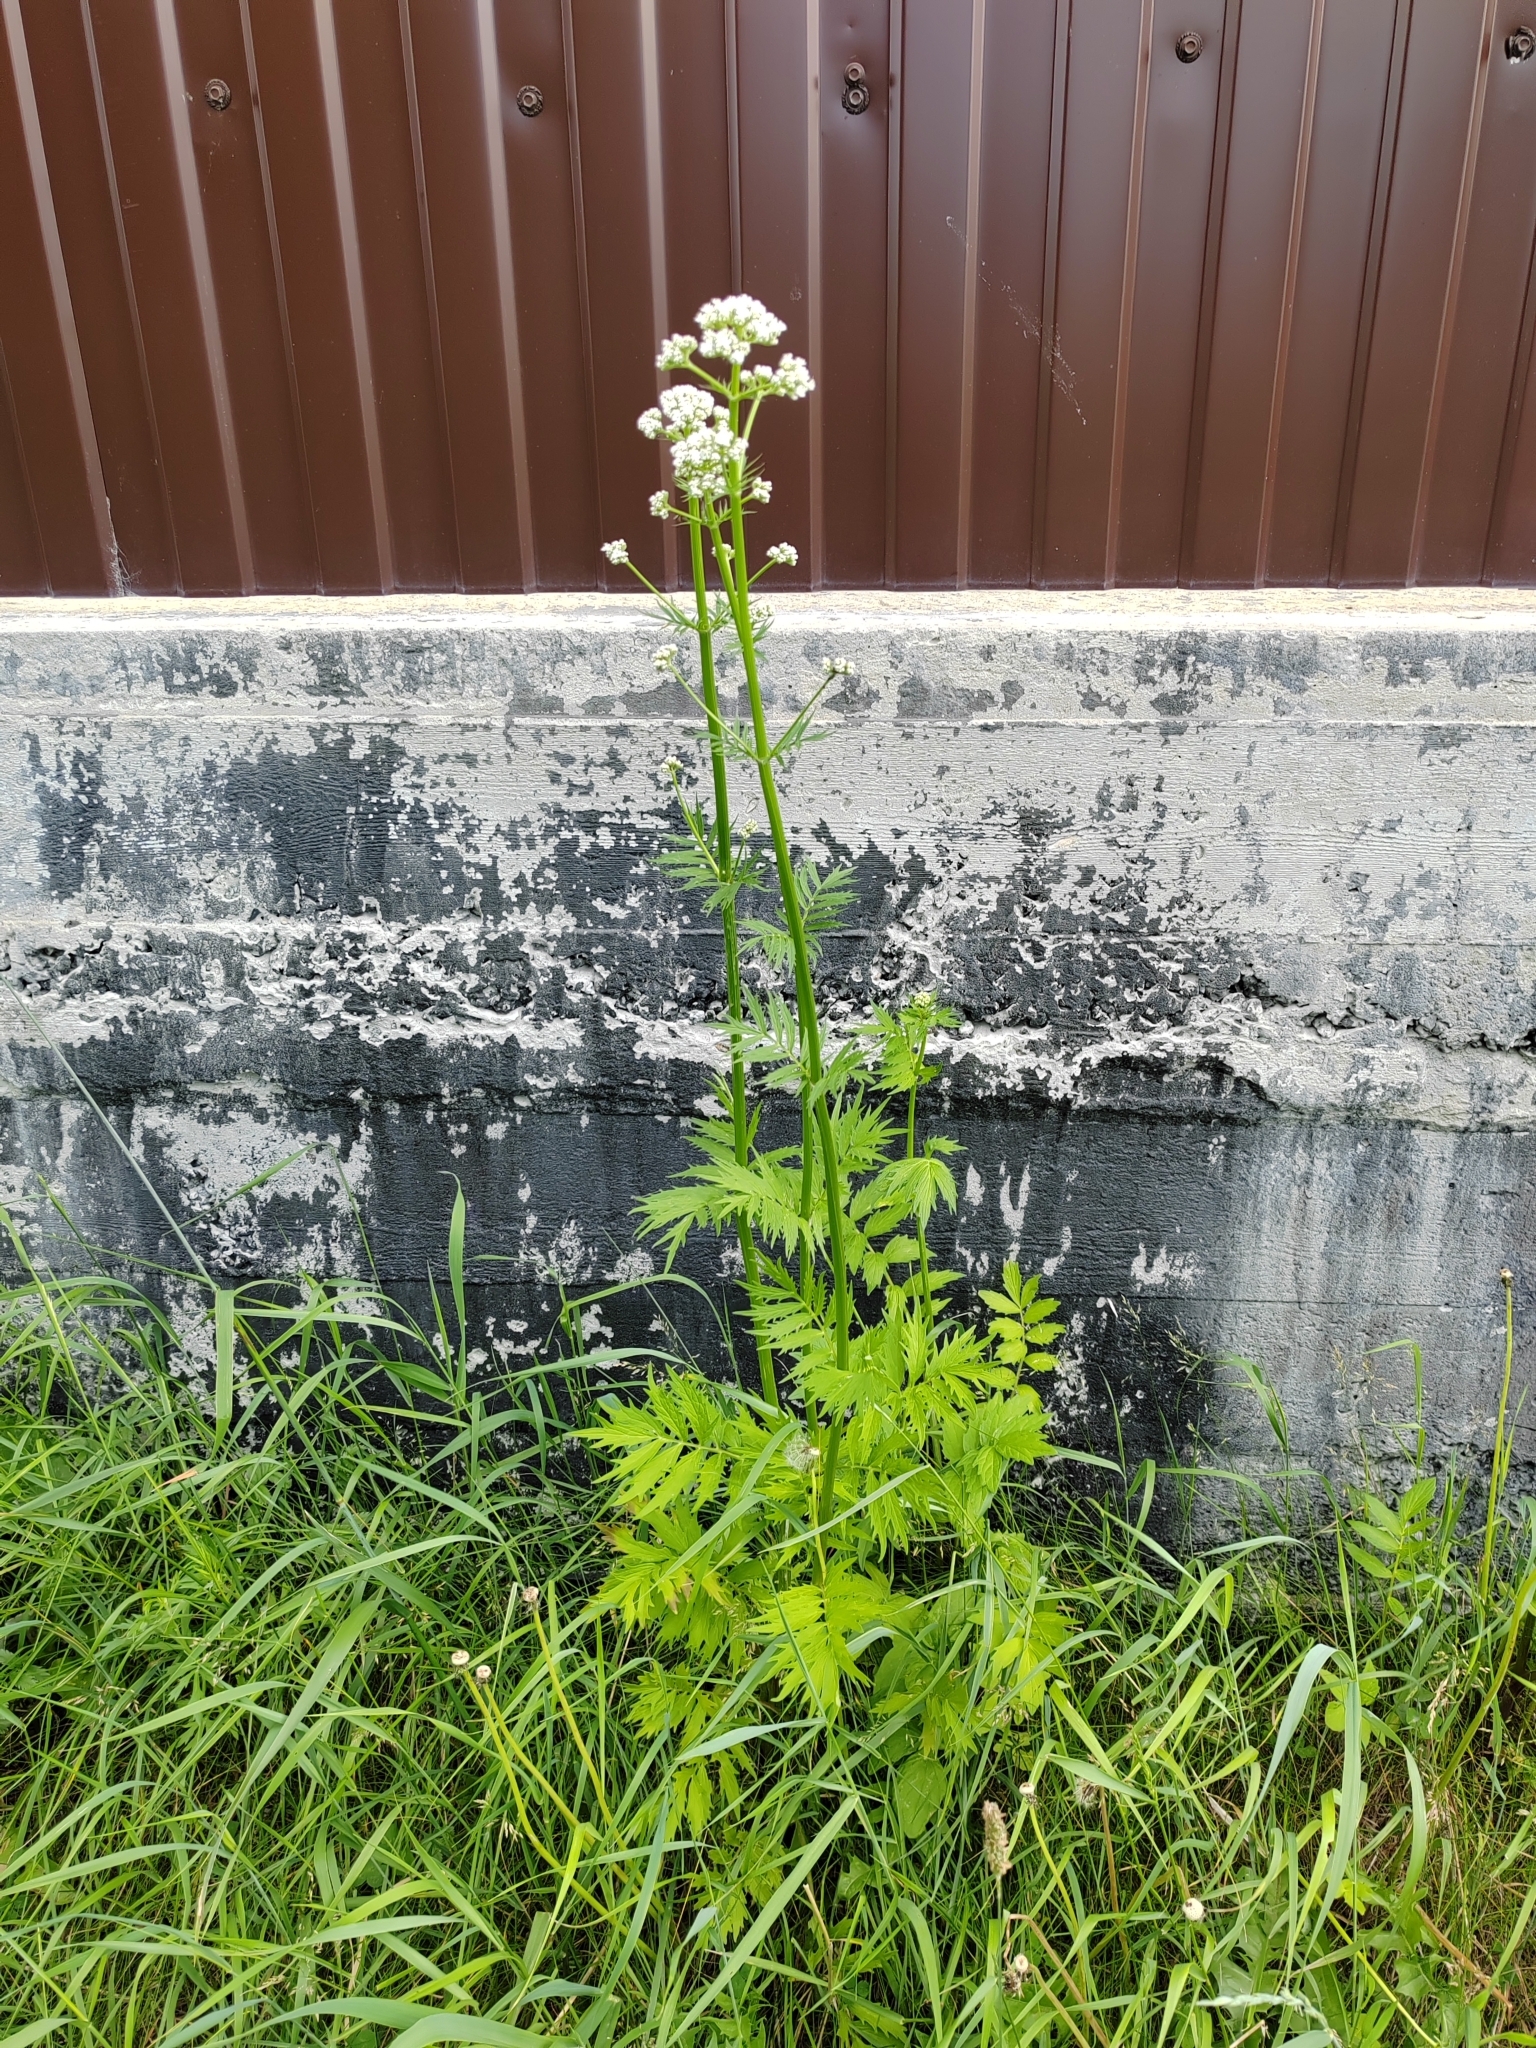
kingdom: Plantae
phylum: Tracheophyta
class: Magnoliopsida
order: Dipsacales
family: Caprifoliaceae
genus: Valeriana
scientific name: Valeriana wolgensis
